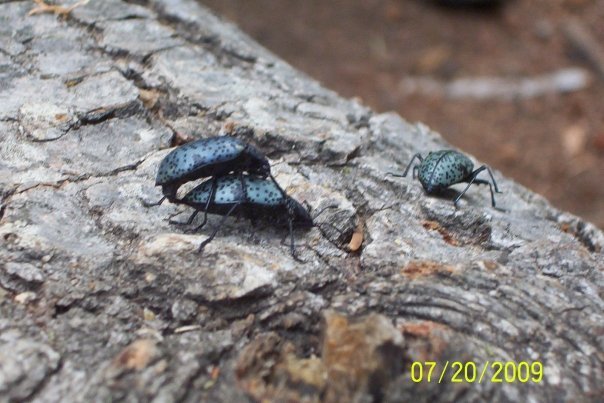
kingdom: Animalia
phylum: Arthropoda
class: Insecta
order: Coleoptera
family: Erotylidae
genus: Gibbifer
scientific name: Gibbifer californicus
